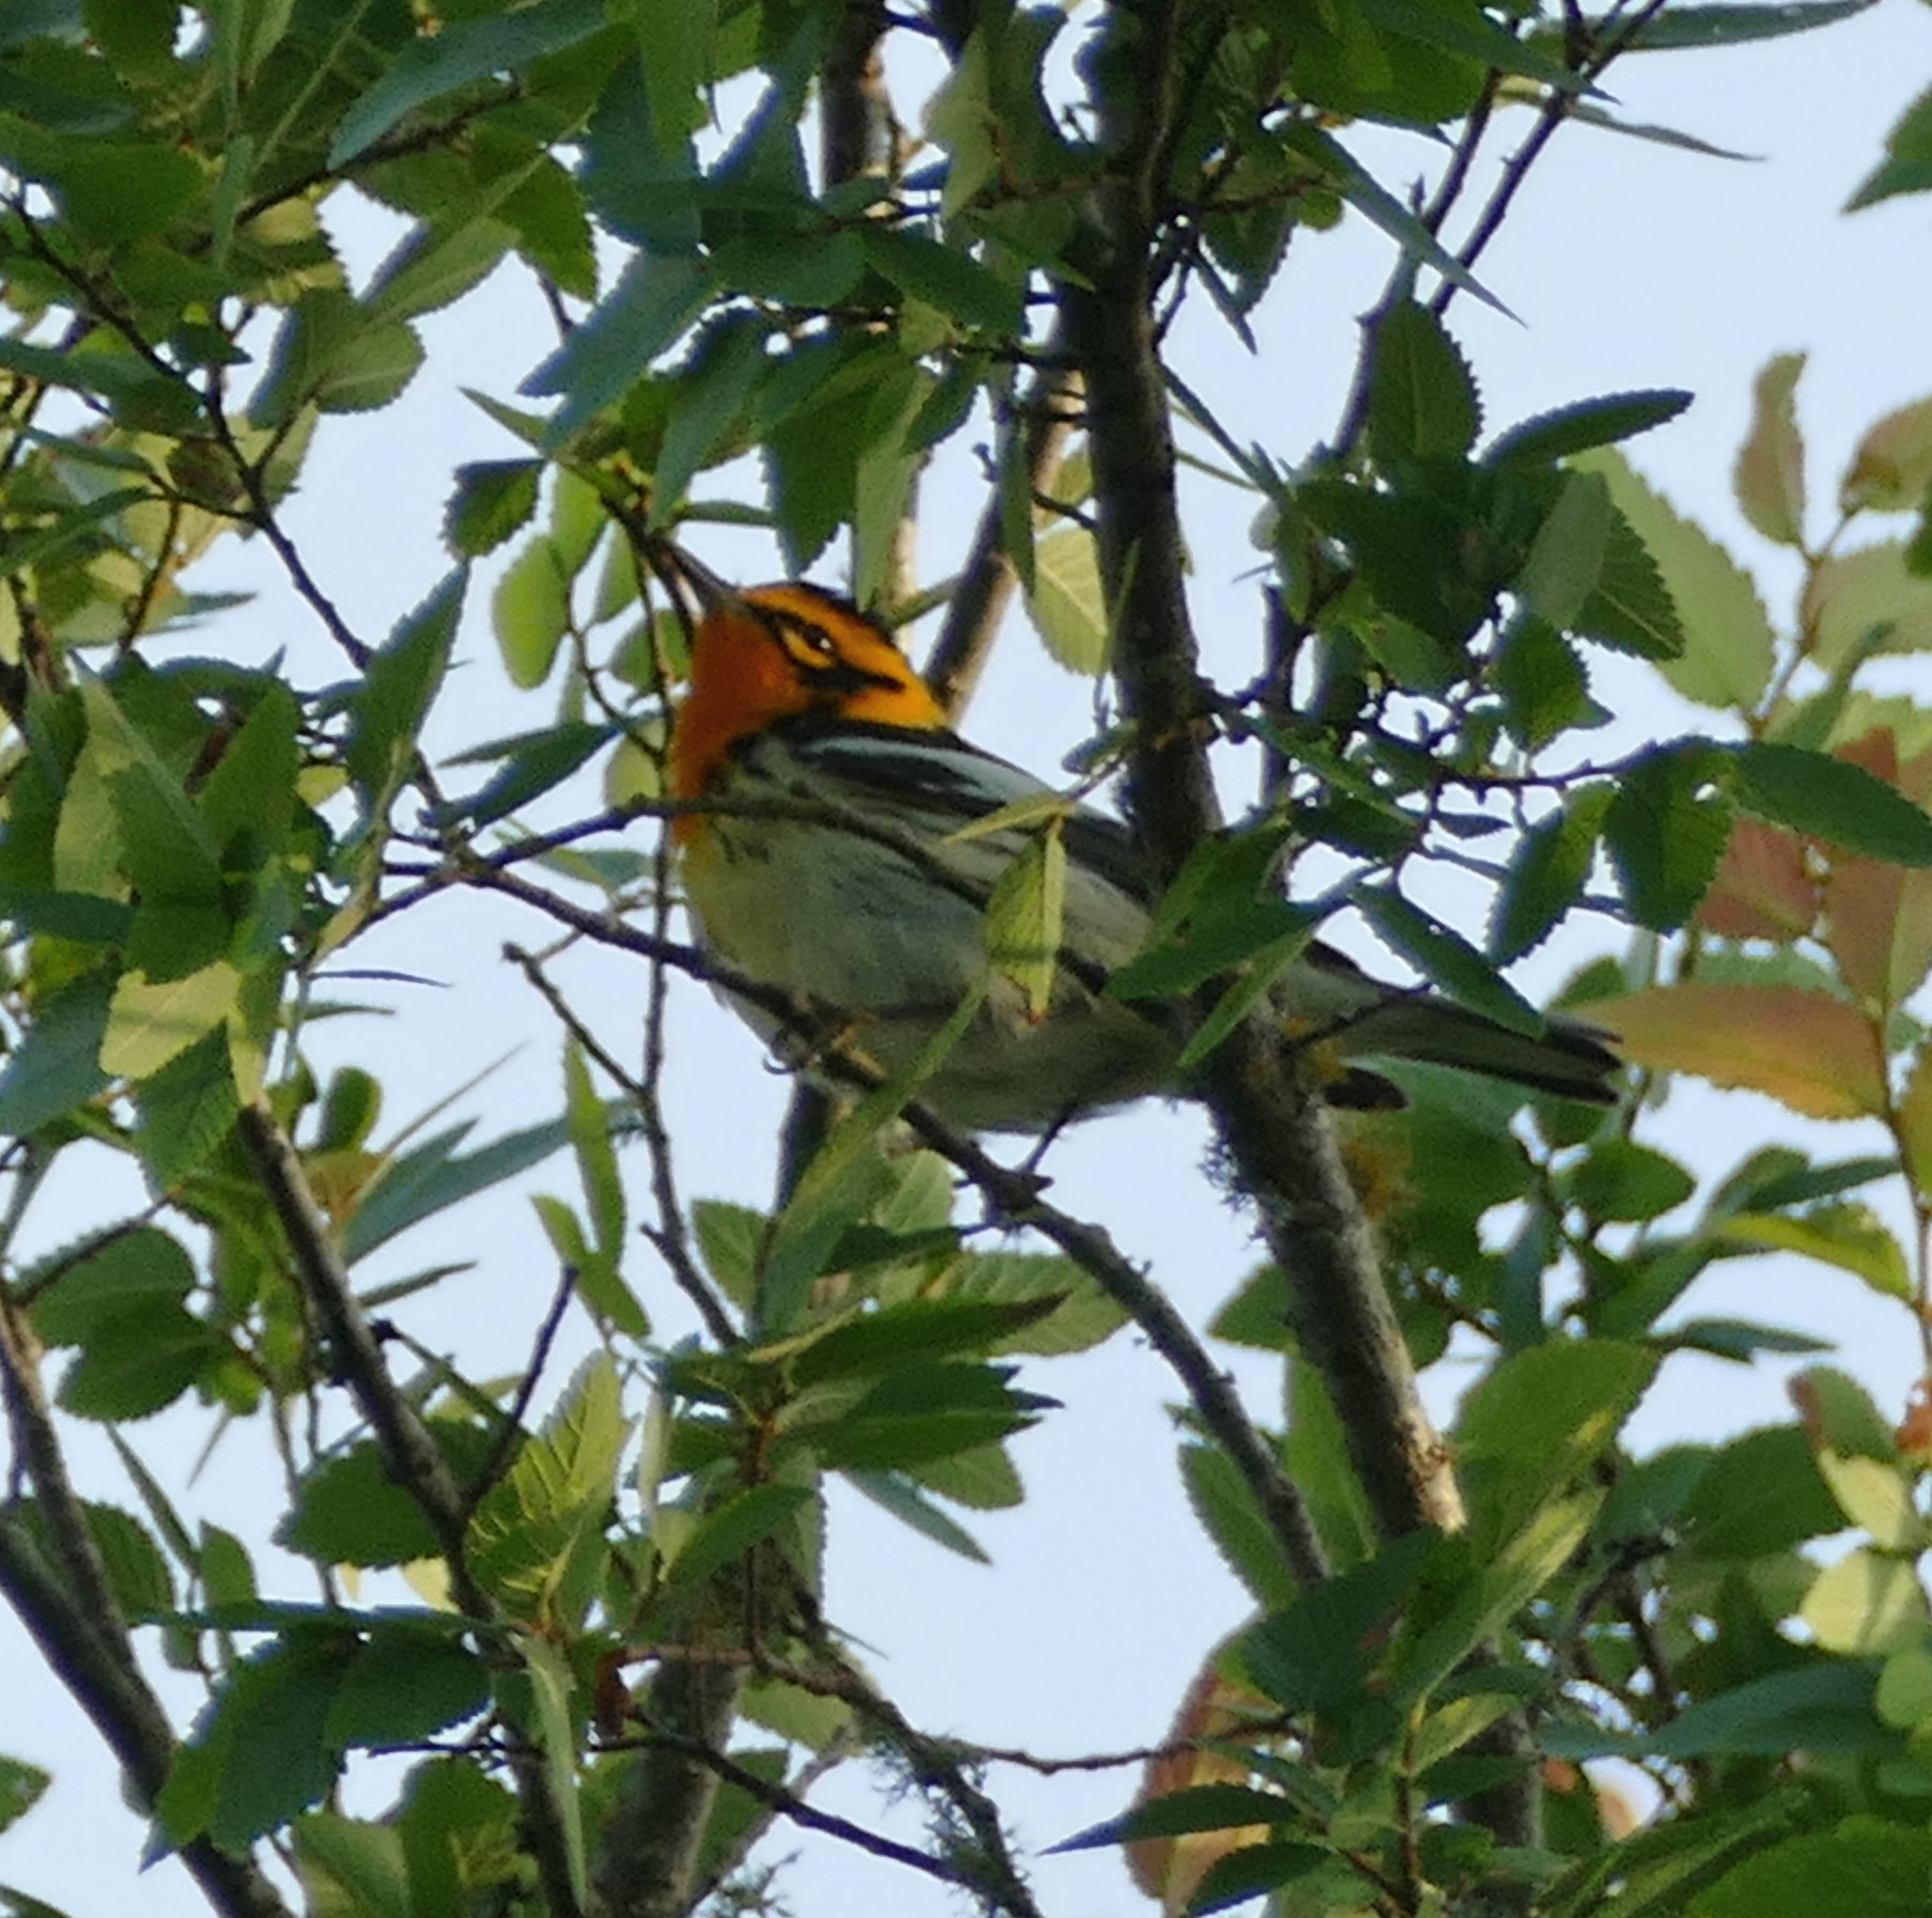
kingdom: Animalia
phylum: Chordata
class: Aves
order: Passeriformes
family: Parulidae
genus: Setophaga
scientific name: Setophaga fusca
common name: Blackburnian warbler
